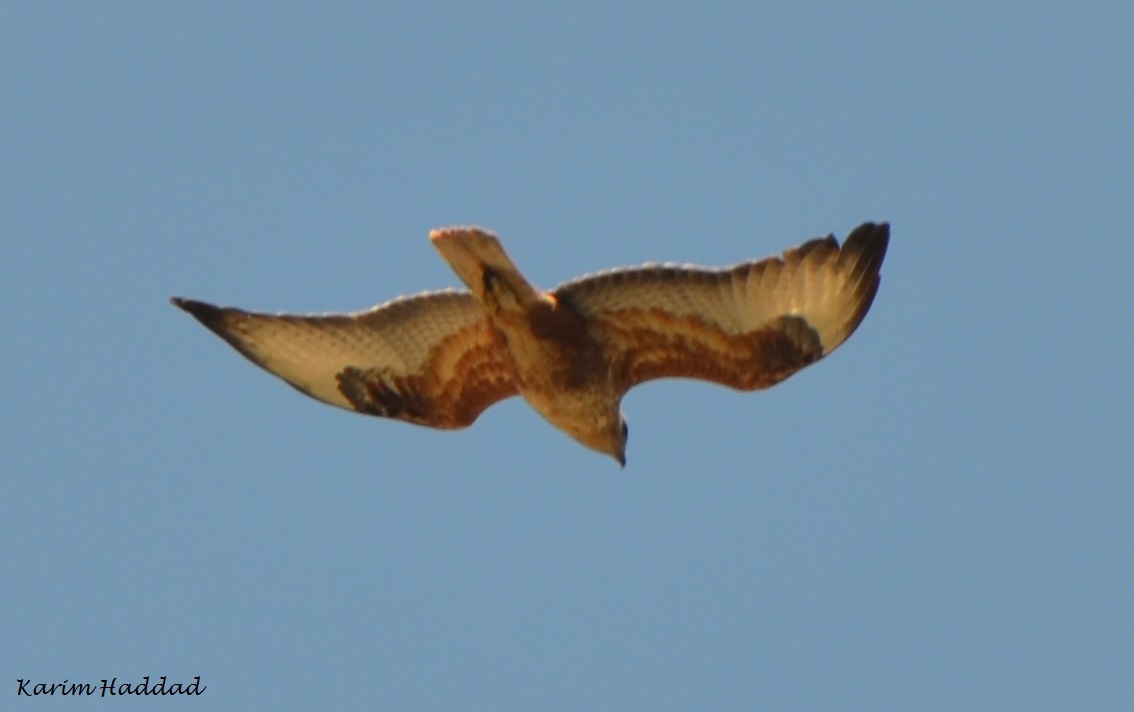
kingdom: Animalia
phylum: Chordata
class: Aves
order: Accipitriformes
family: Accipitridae
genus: Buteo
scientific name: Buteo rufinus
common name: Long-legged buzzard
